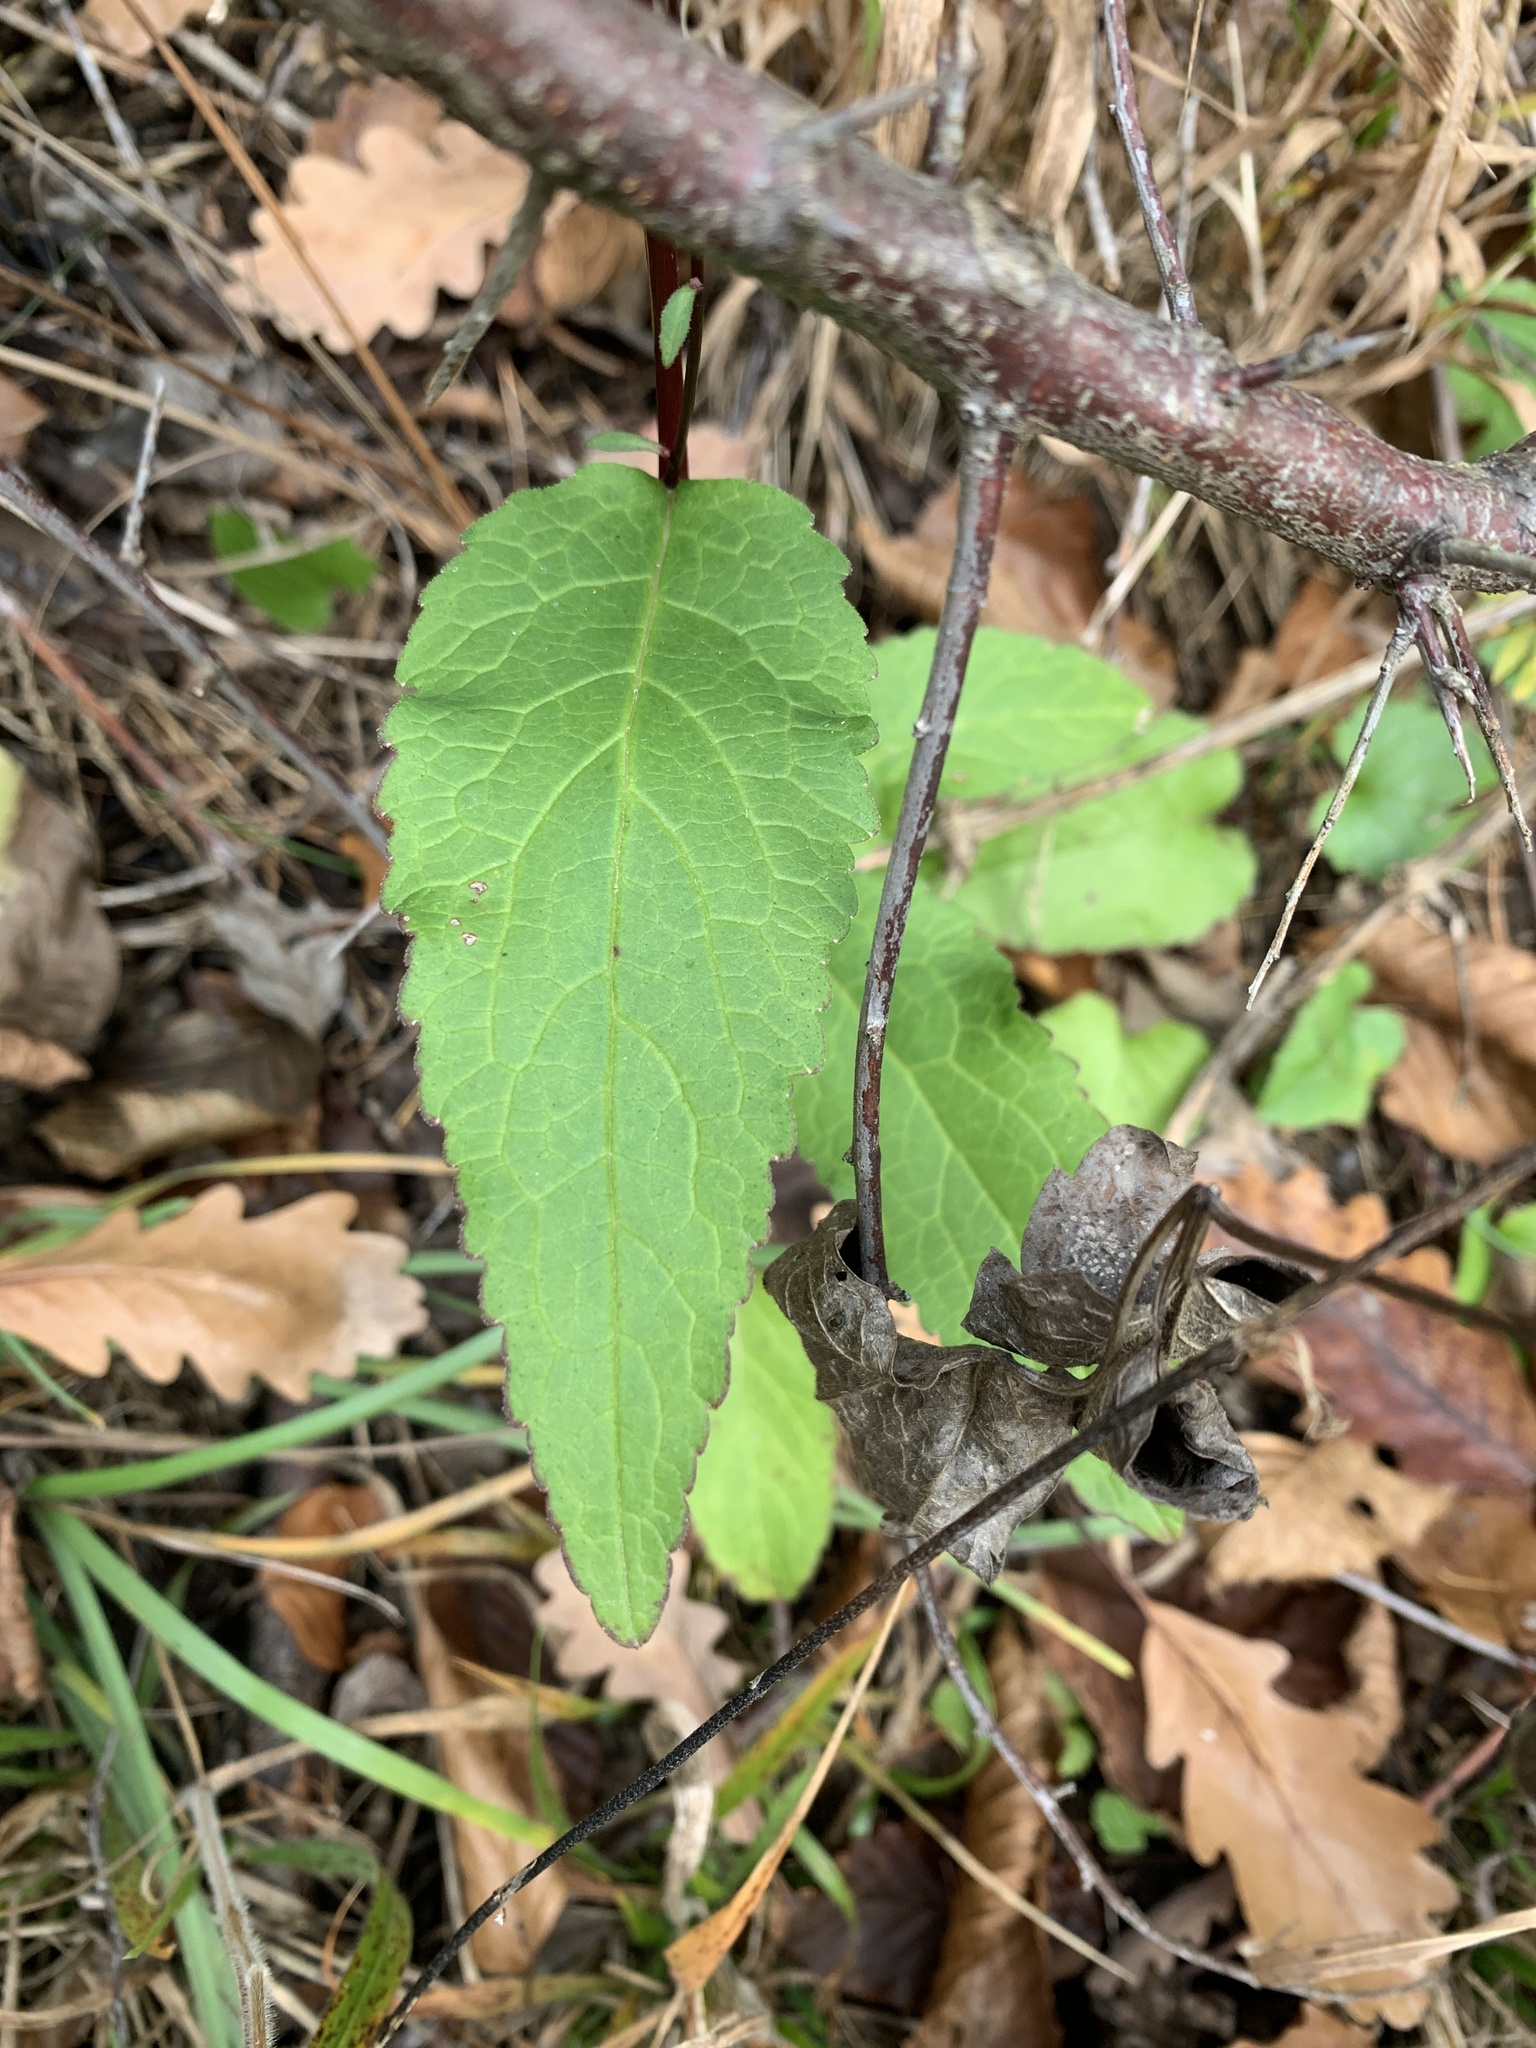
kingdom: Plantae
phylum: Tracheophyta
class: Magnoliopsida
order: Asterales
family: Campanulaceae
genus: Campanula
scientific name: Campanula rapunculoides
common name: Creeping bellflower
